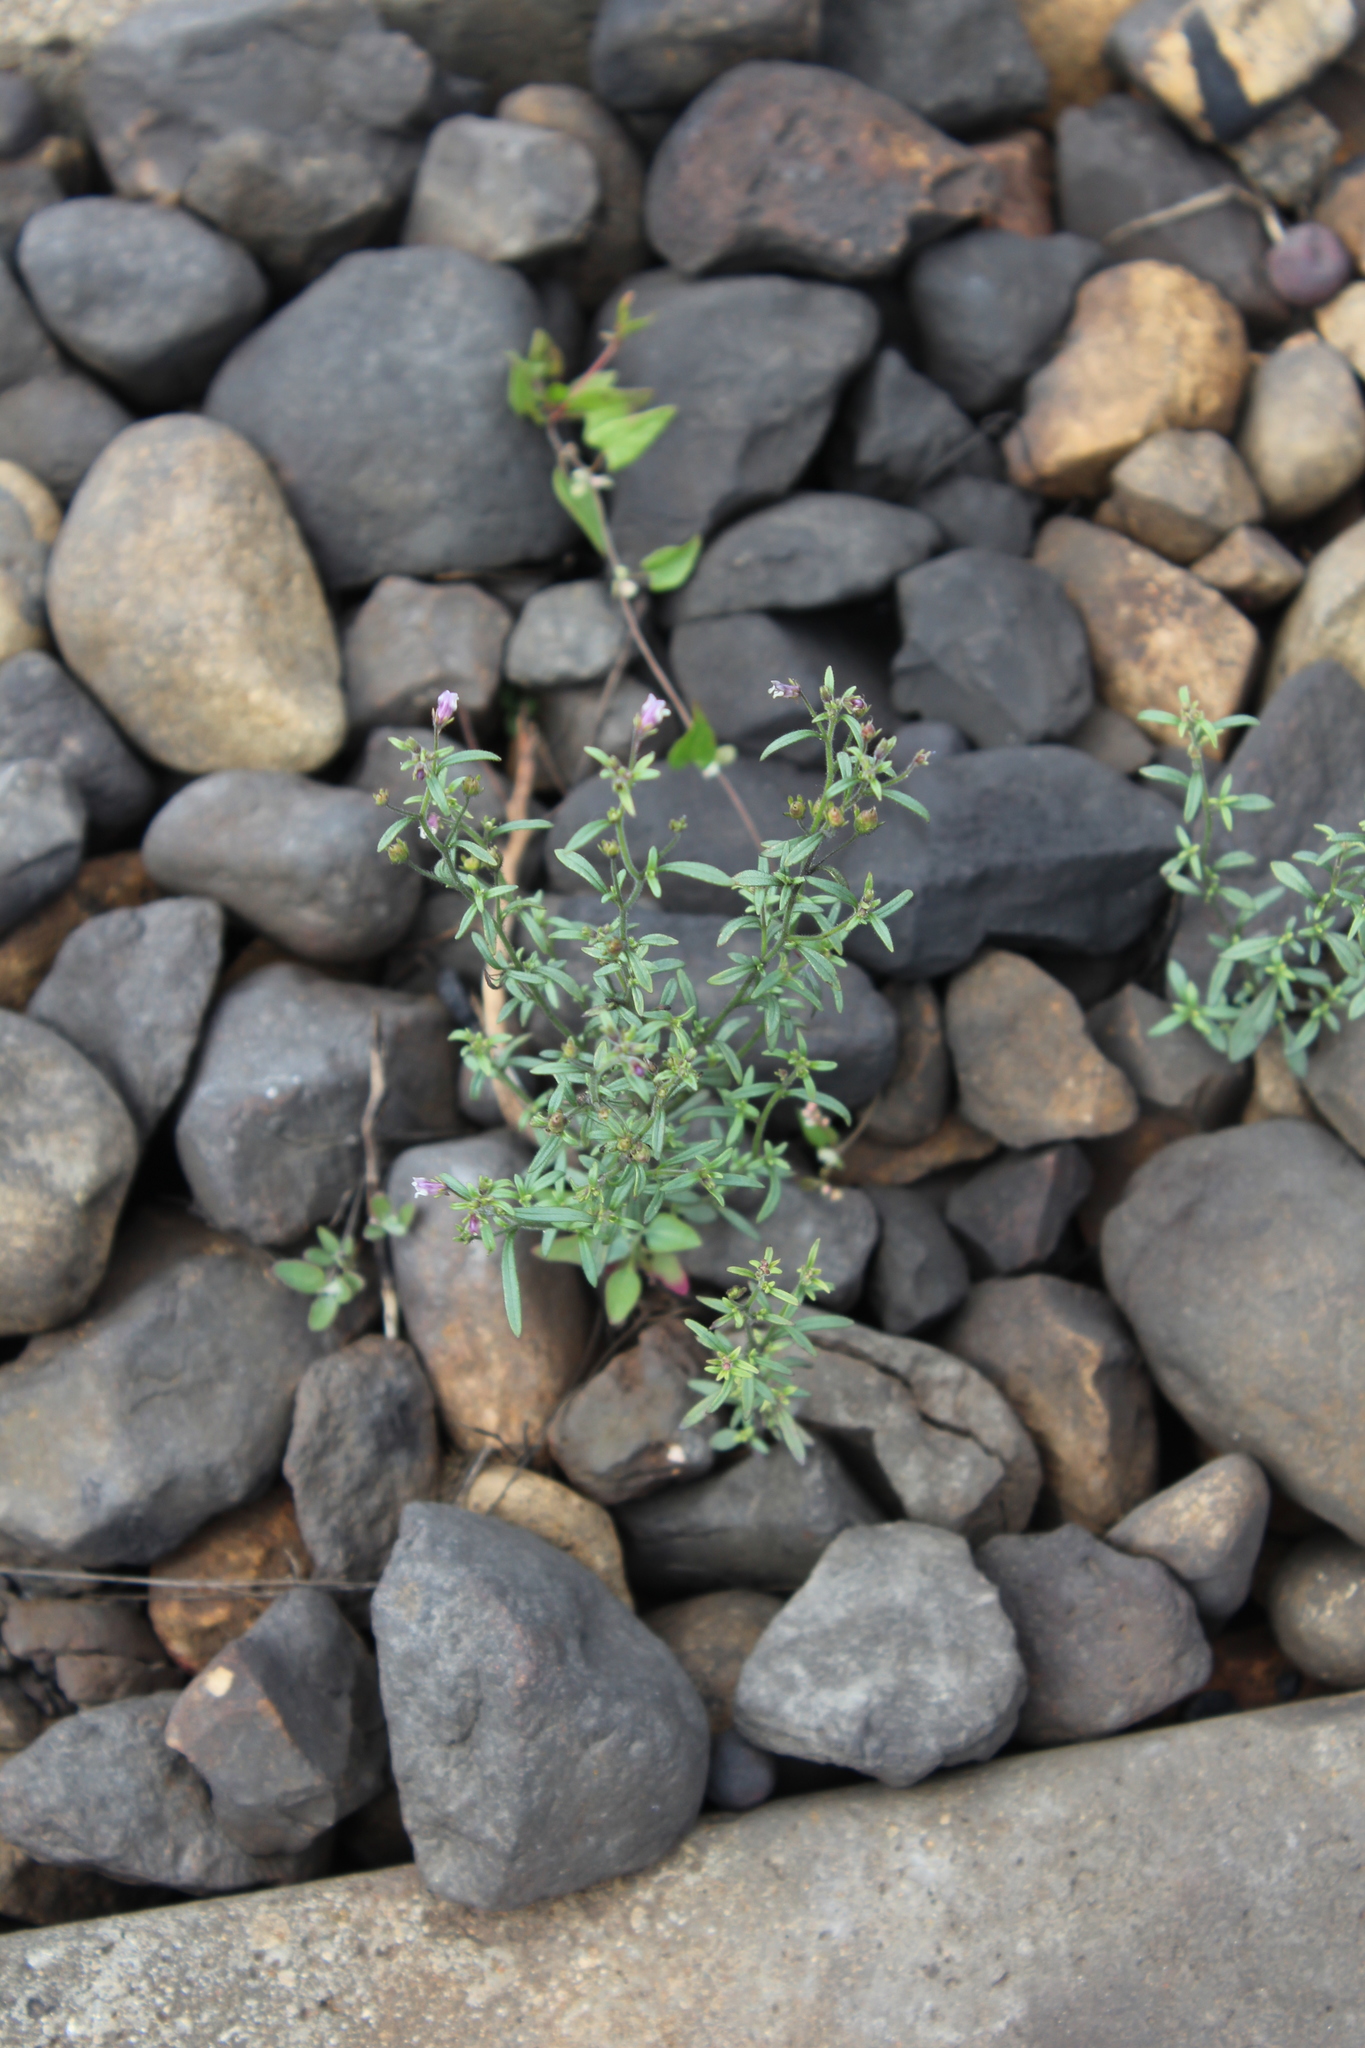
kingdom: Plantae
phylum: Tracheophyta
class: Magnoliopsida
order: Lamiales
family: Plantaginaceae
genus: Chaenorhinum
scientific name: Chaenorhinum minus
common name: Dwarf snapdragon
